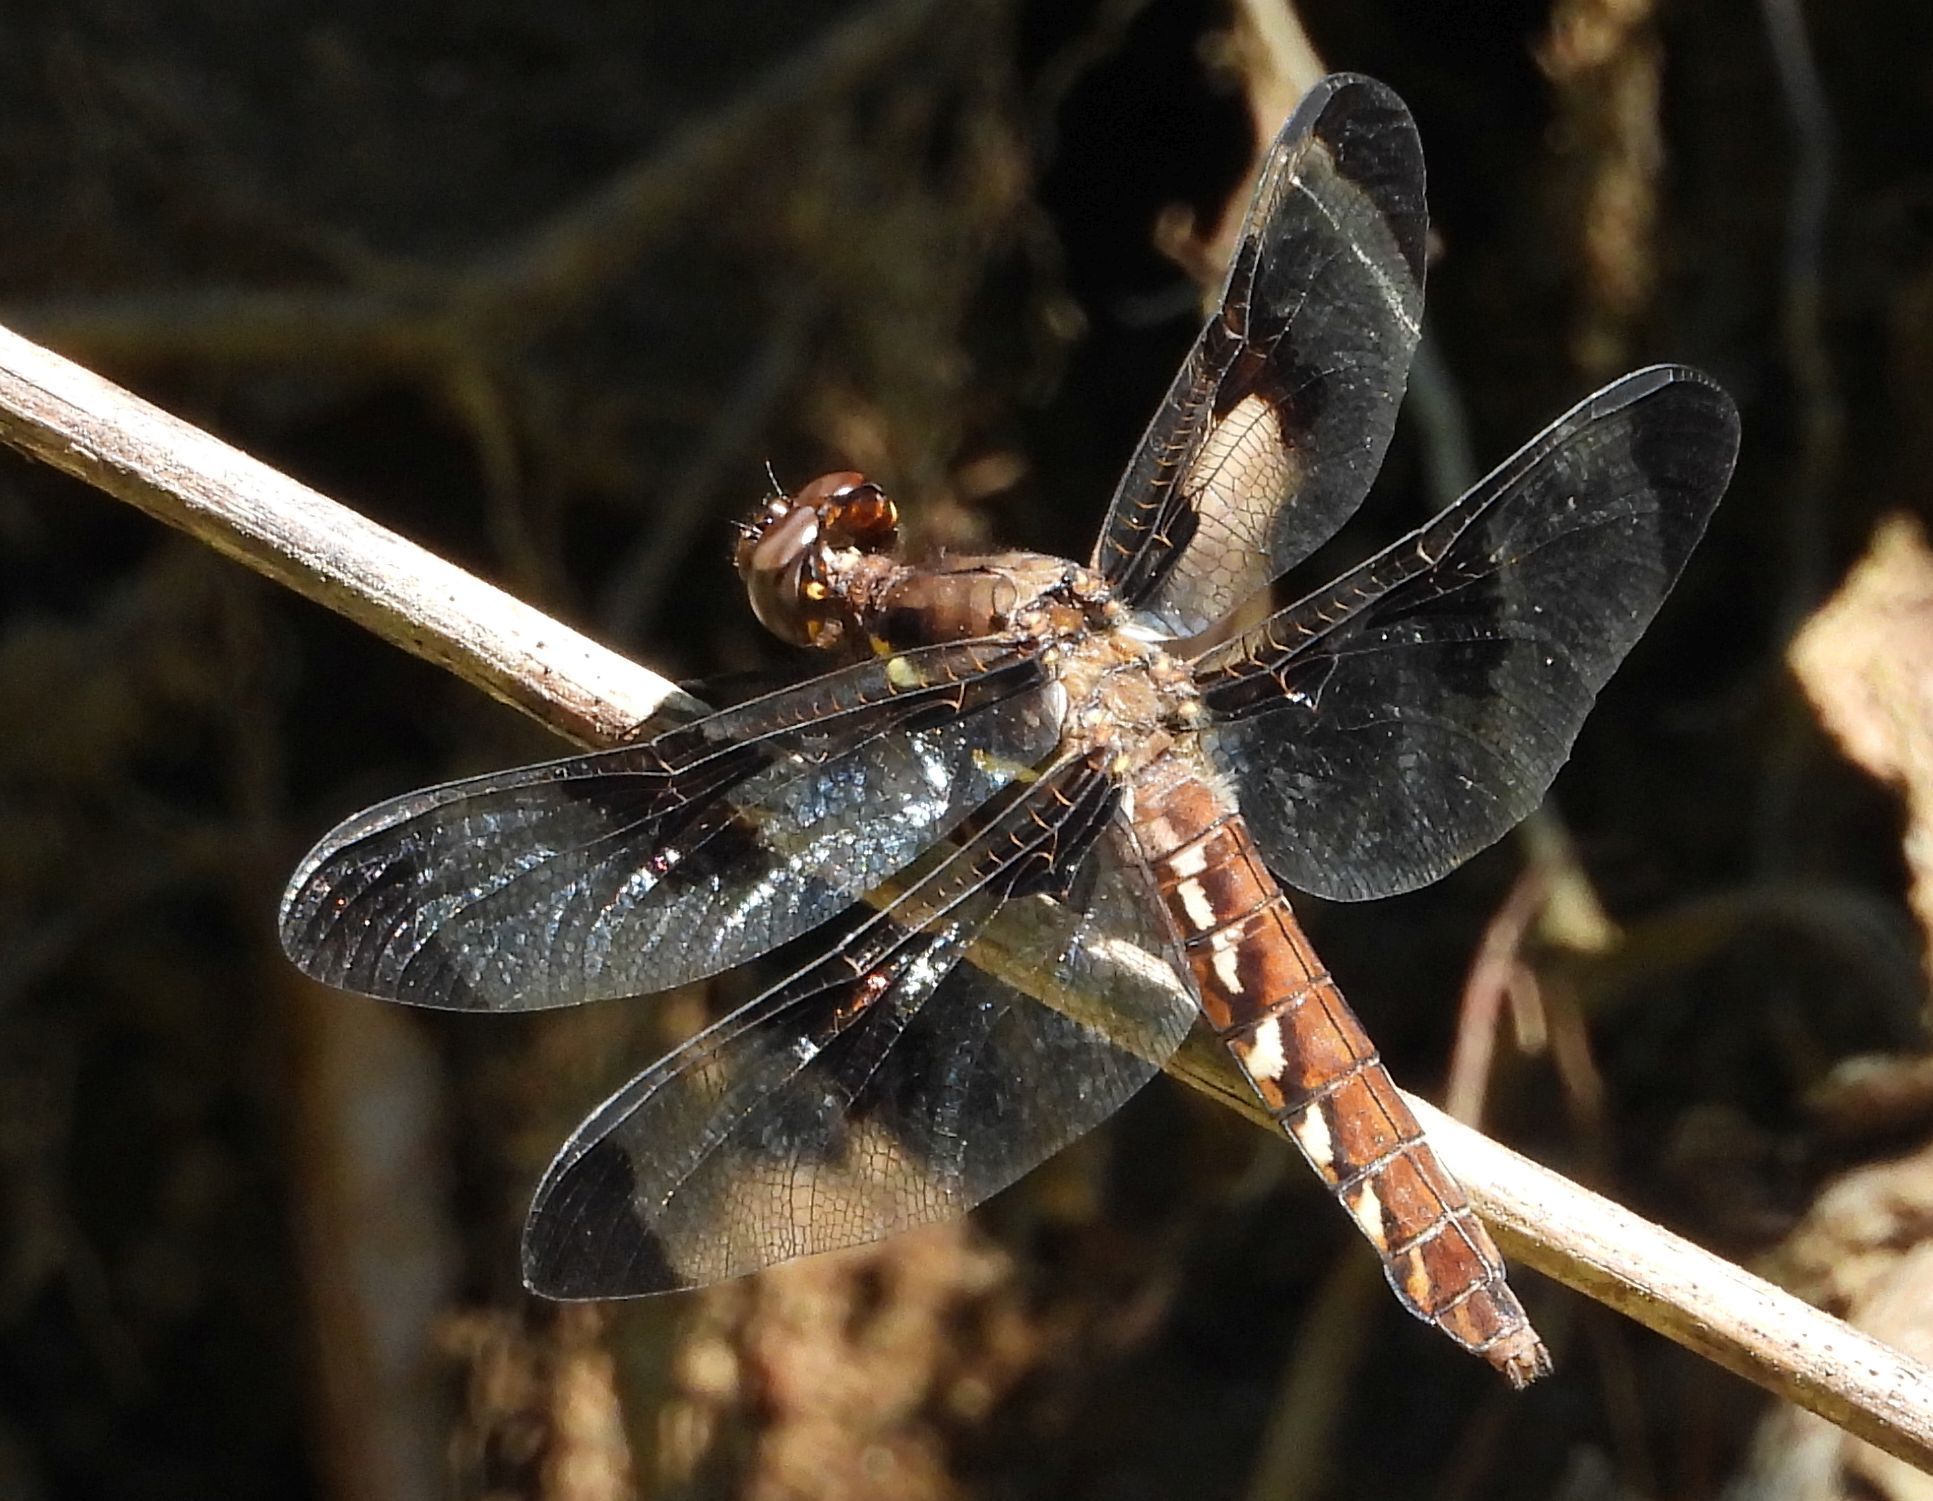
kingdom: Animalia
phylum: Arthropoda
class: Insecta
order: Odonata
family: Libellulidae
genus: Plathemis
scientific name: Plathemis lydia
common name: Common whitetail
